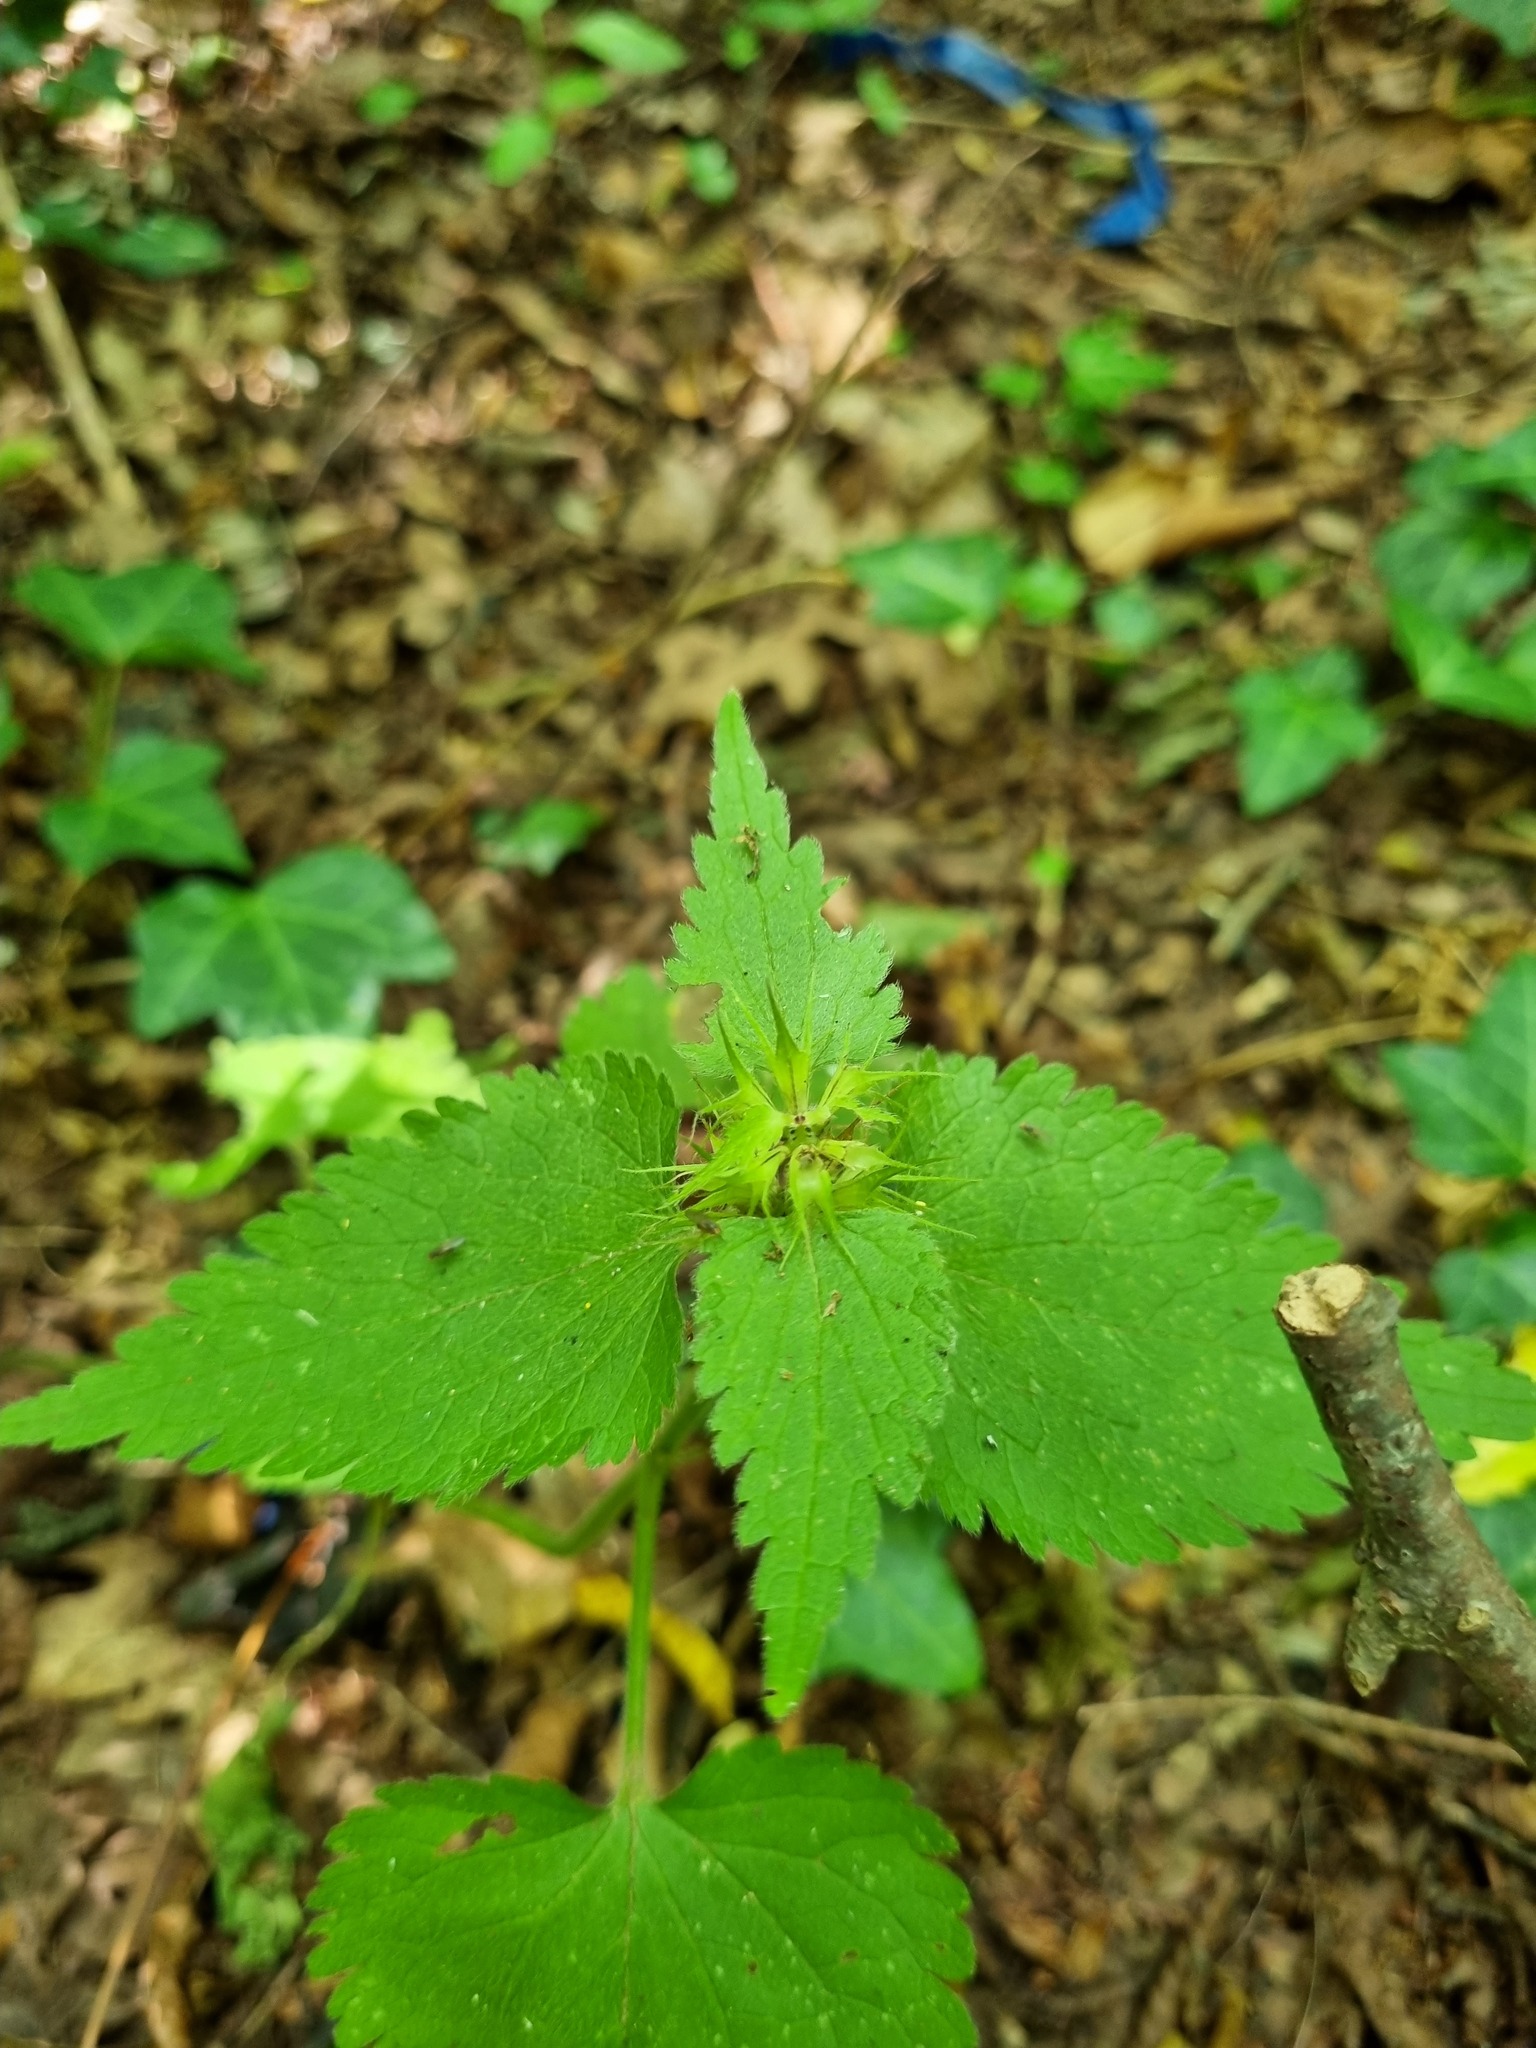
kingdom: Plantae
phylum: Tracheophyta
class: Magnoliopsida
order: Lamiales
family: Lamiaceae
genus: Lamium
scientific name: Lamium maculatum
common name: Spotted dead-nettle
